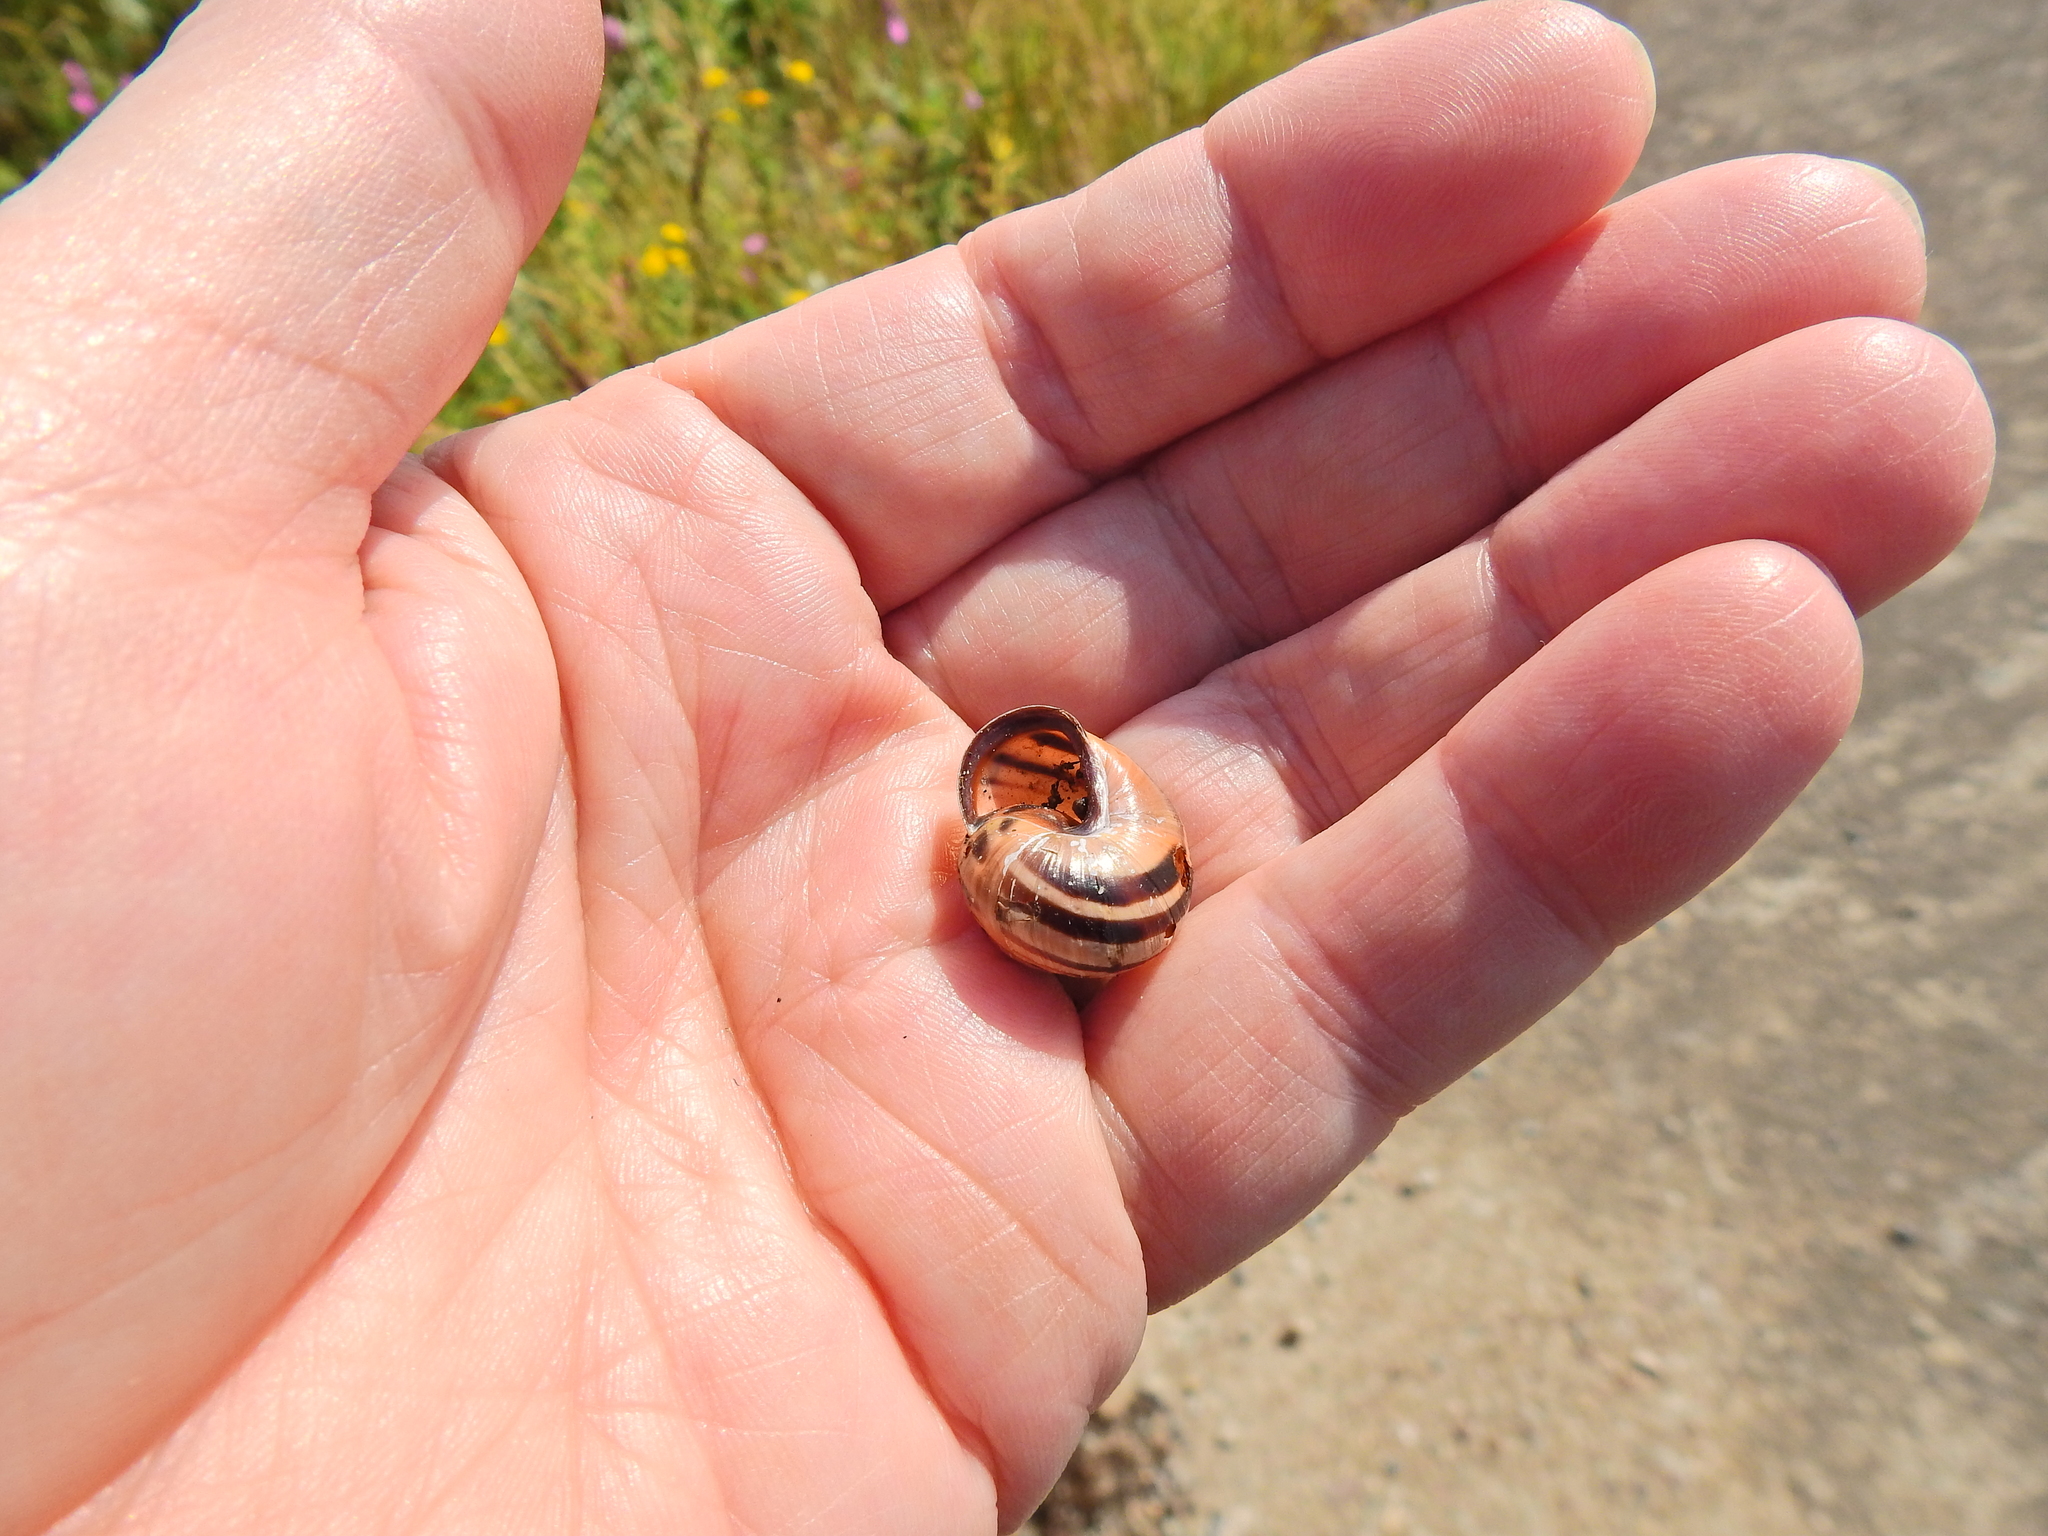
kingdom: Animalia
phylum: Mollusca
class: Gastropoda
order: Stylommatophora
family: Helicidae
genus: Cepaea
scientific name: Cepaea nemoralis
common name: Grovesnail
